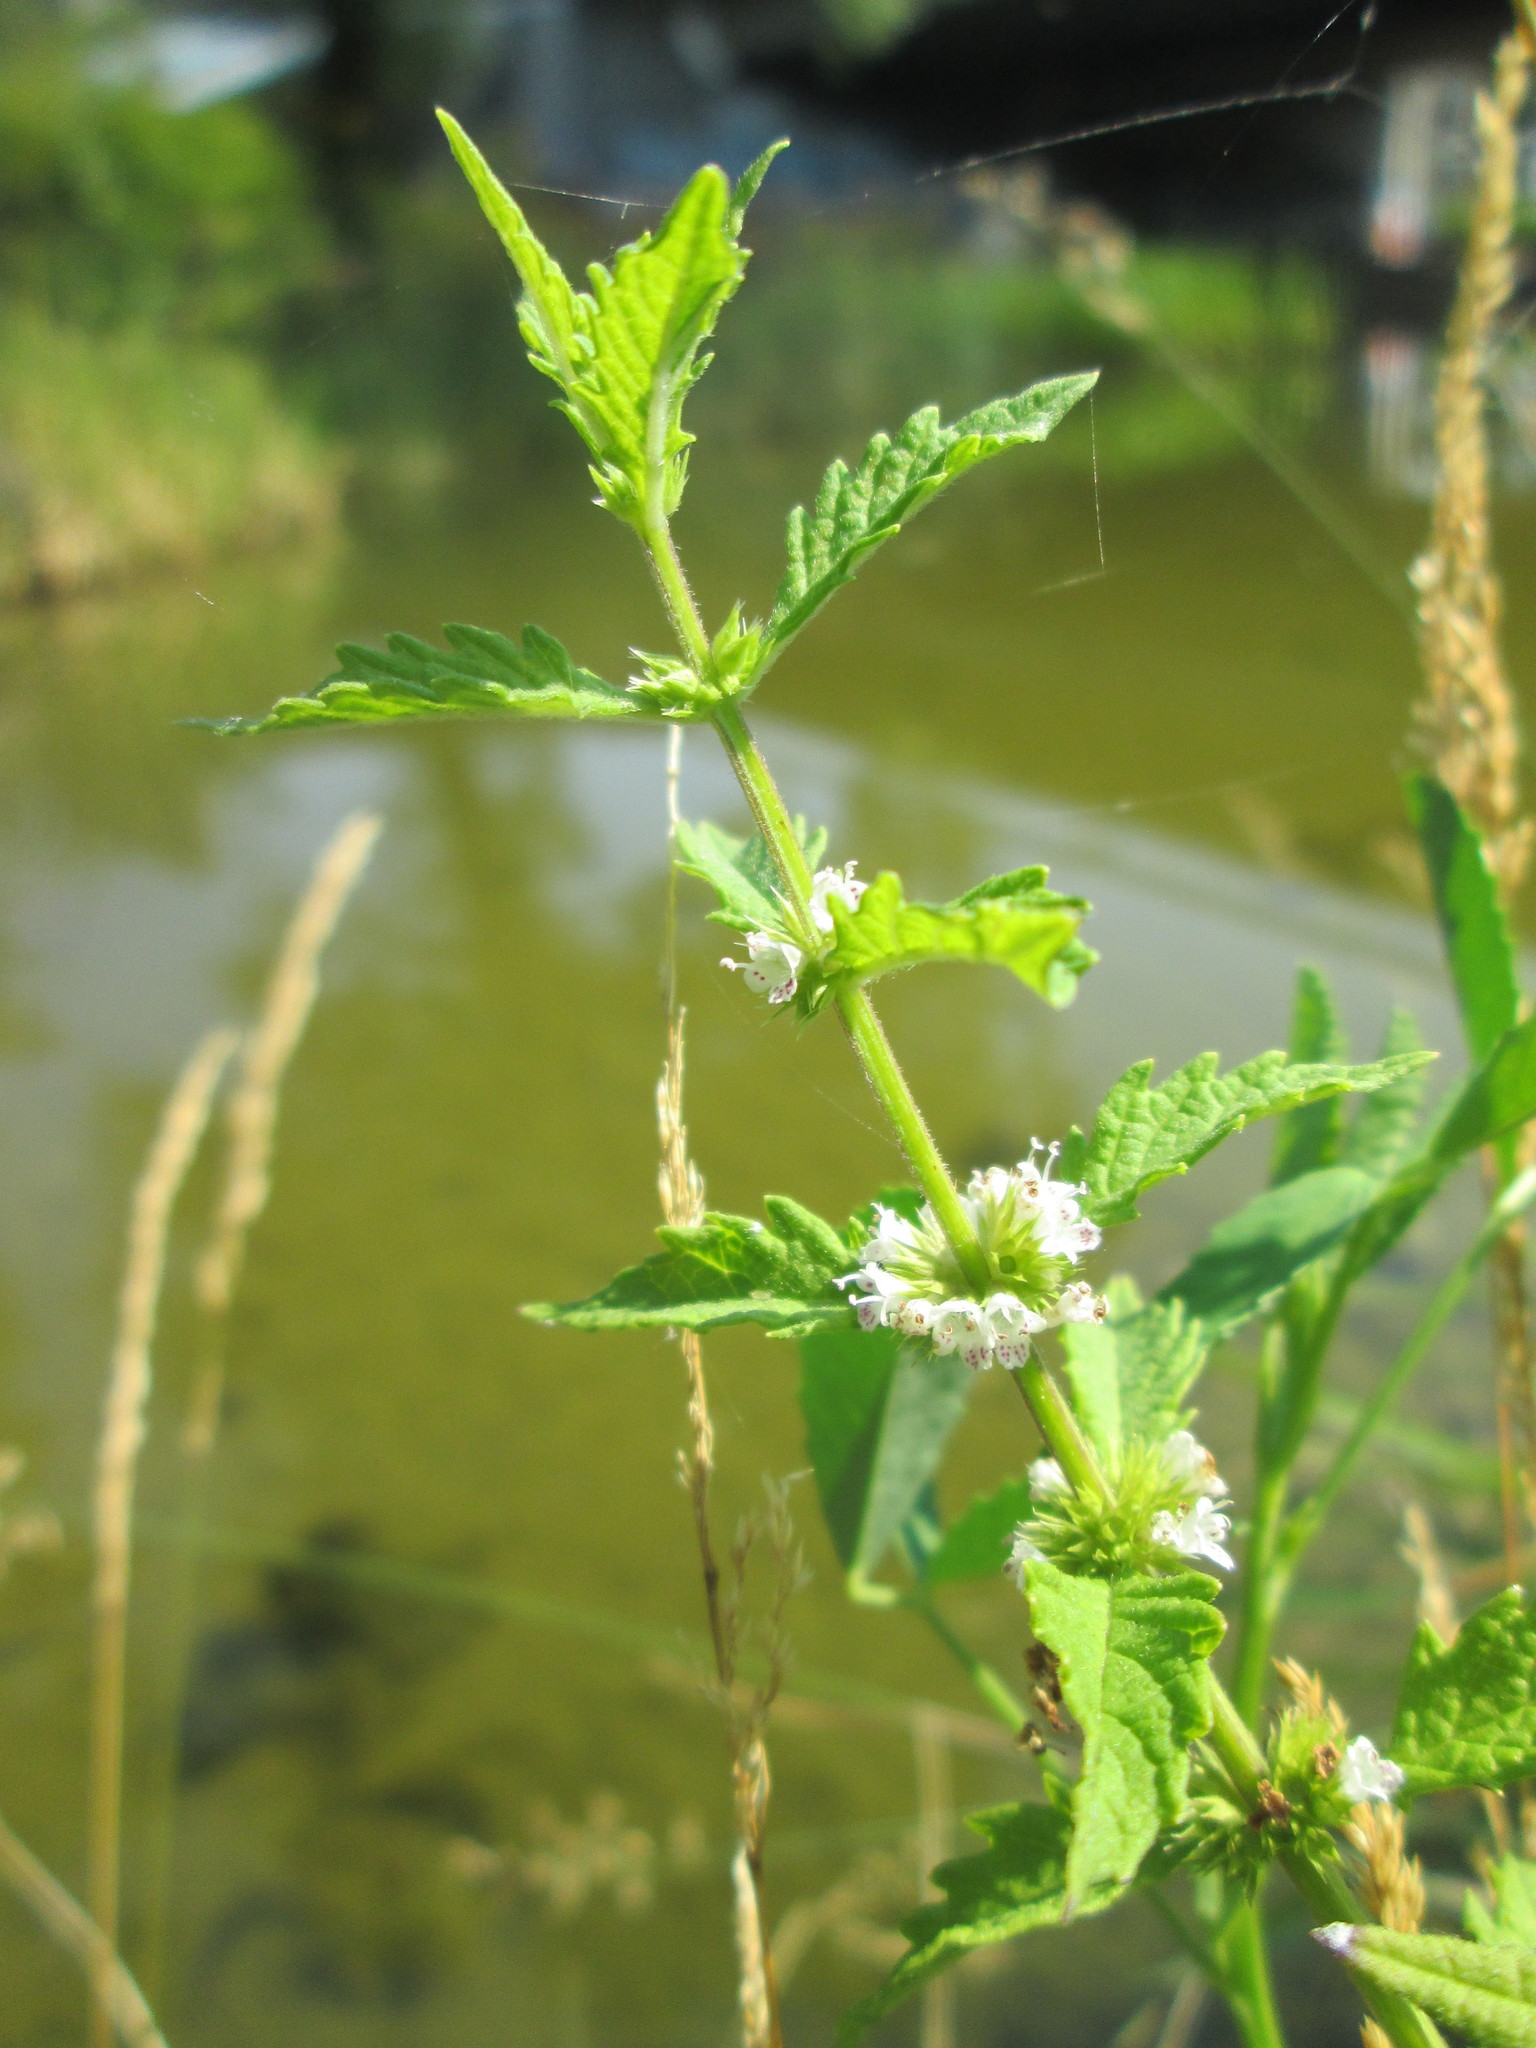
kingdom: Plantae
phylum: Tracheophyta
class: Magnoliopsida
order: Lamiales
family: Lamiaceae
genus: Lycopus
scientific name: Lycopus europaeus
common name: European bugleweed
